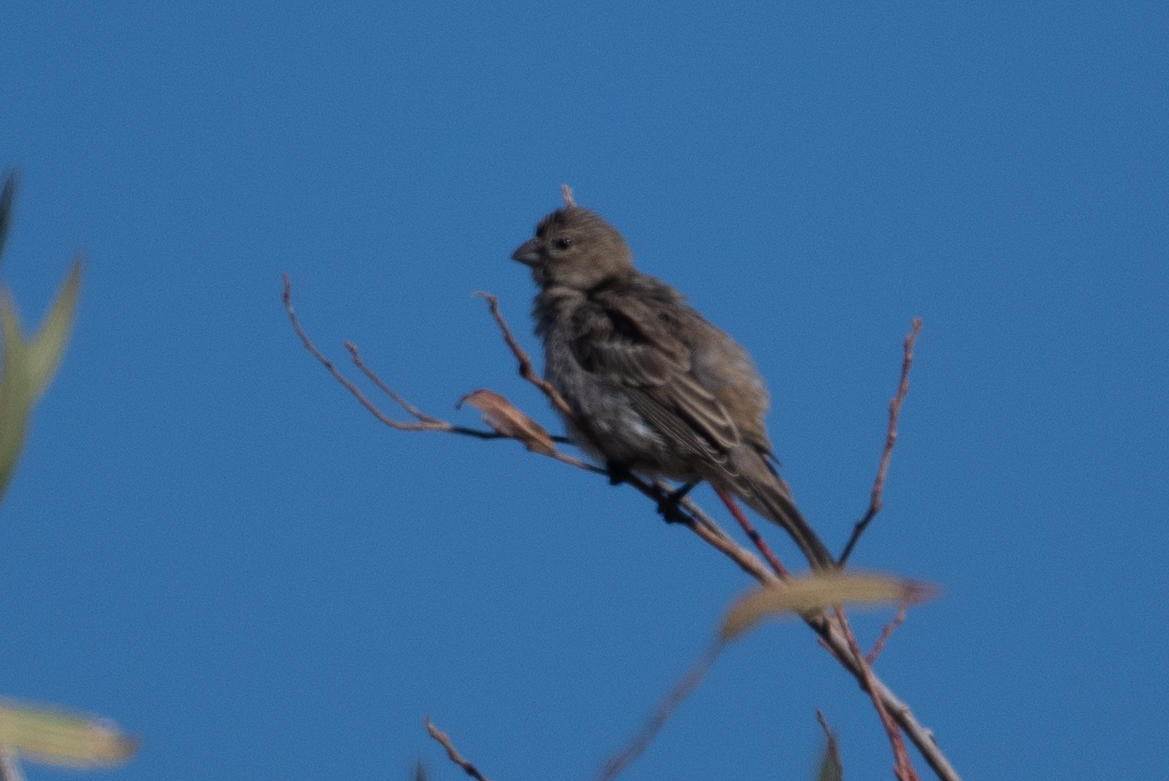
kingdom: Animalia
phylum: Chordata
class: Aves
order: Passeriformes
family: Fringillidae
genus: Haemorhous
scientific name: Haemorhous mexicanus
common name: House finch
